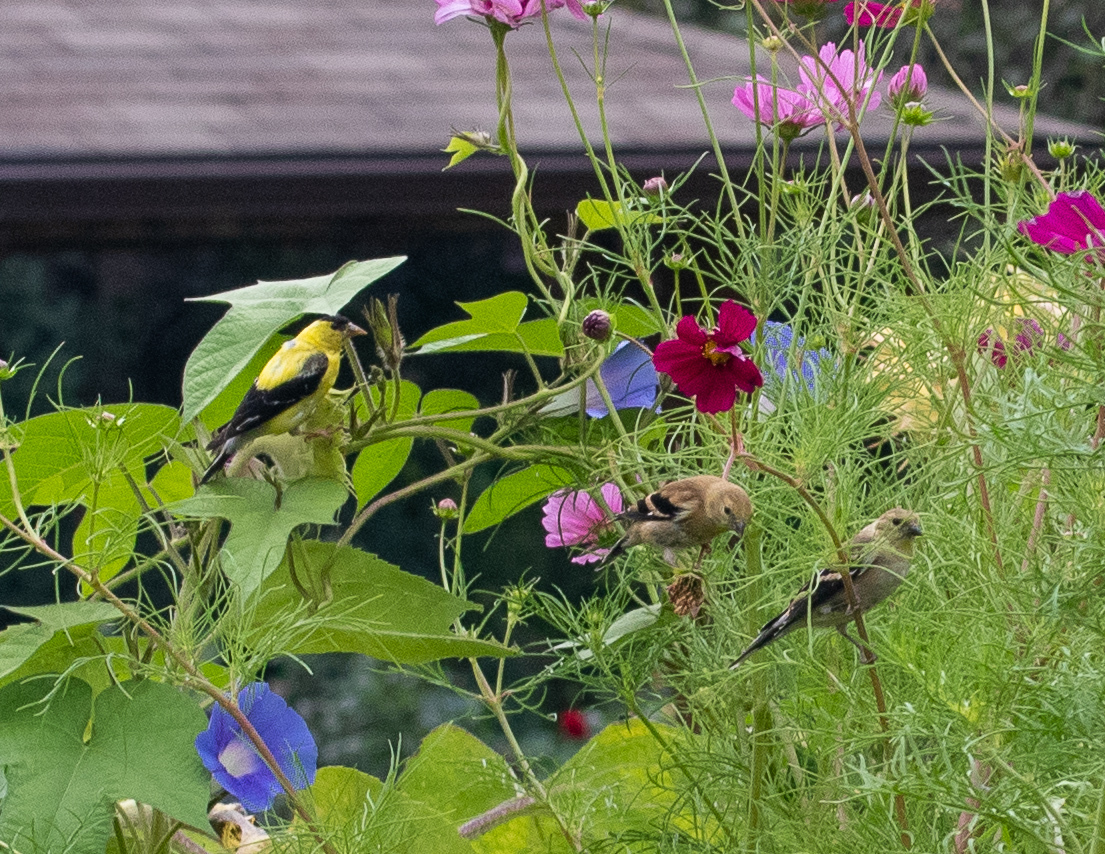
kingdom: Animalia
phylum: Chordata
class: Aves
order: Passeriformes
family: Fringillidae
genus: Spinus
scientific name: Spinus tristis
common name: American goldfinch
